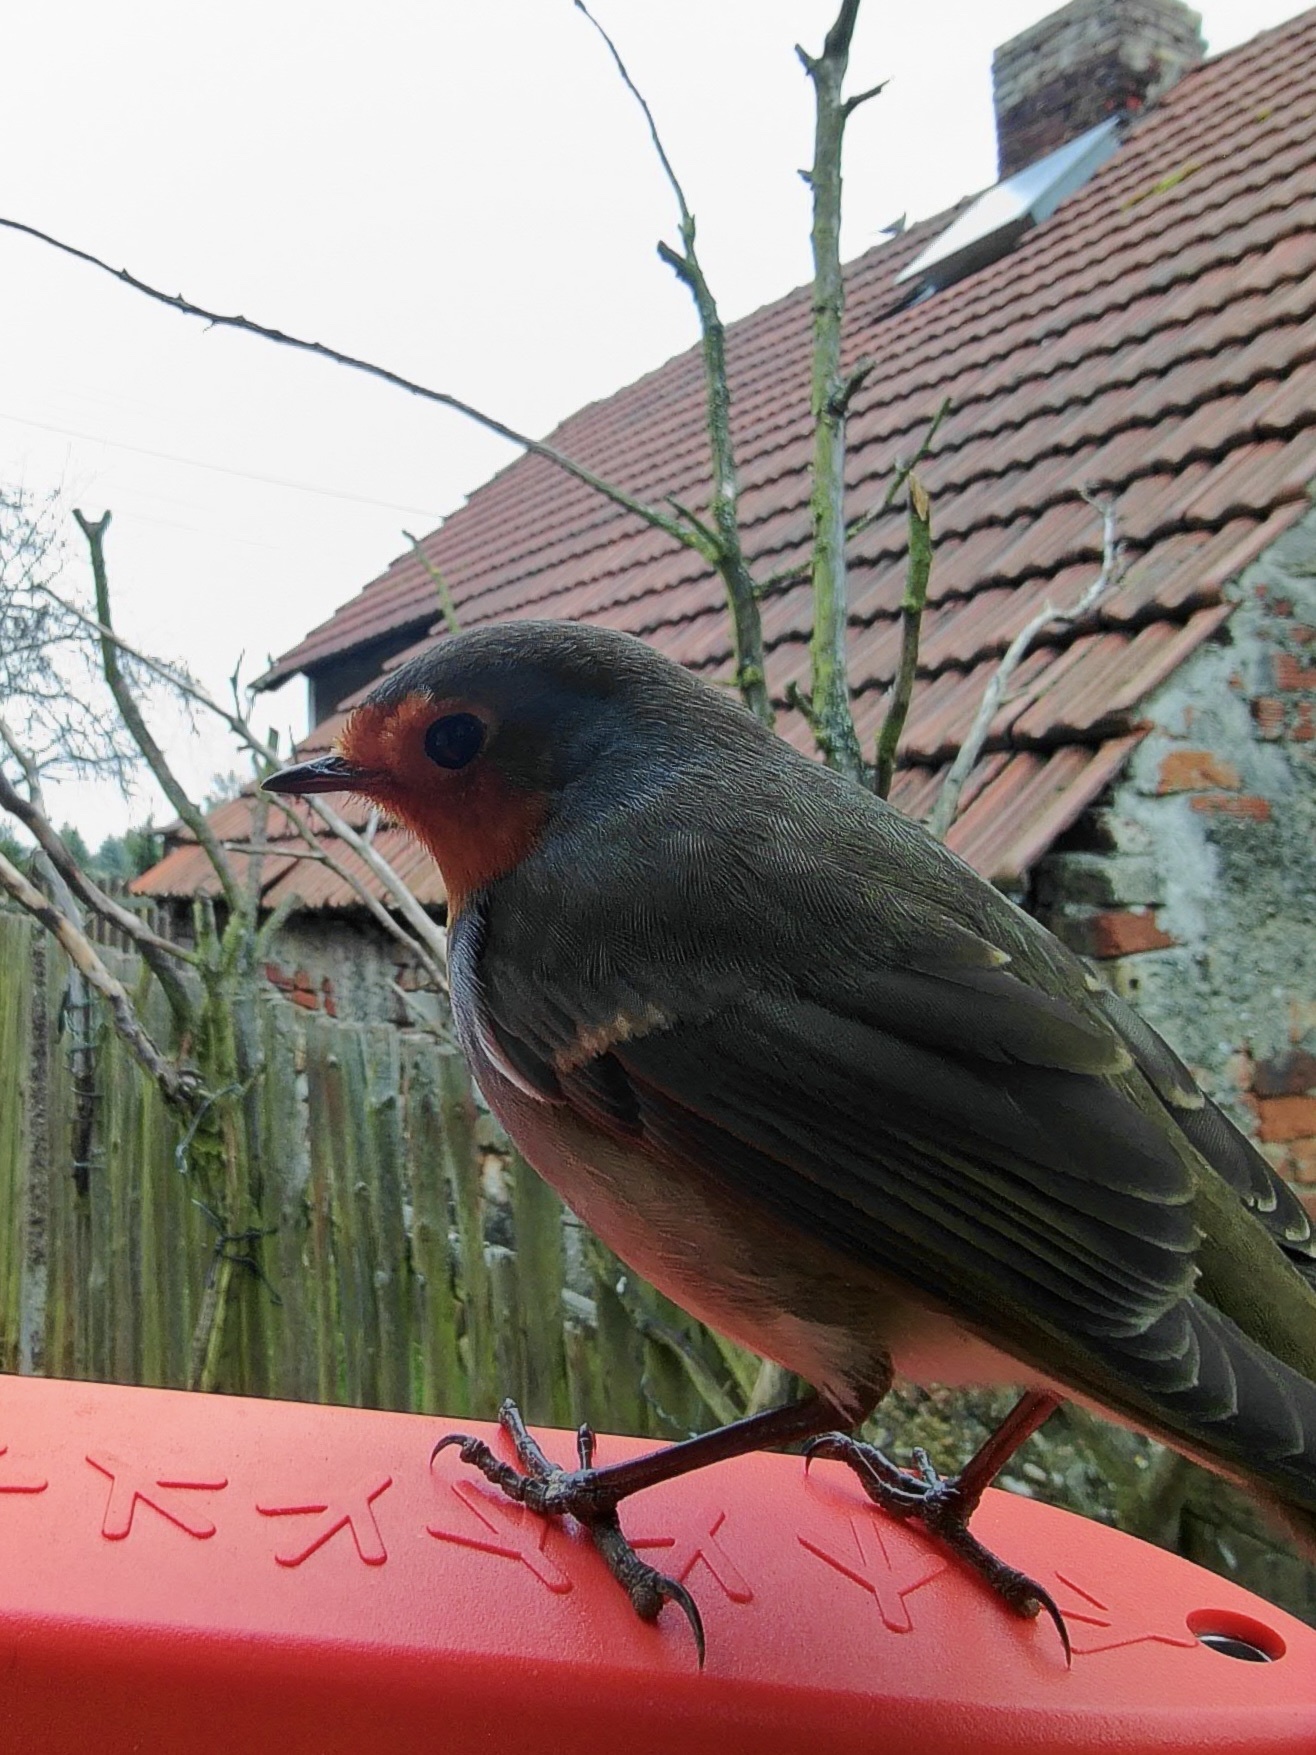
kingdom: Animalia
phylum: Chordata
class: Aves
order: Passeriformes
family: Muscicapidae
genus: Erithacus
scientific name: Erithacus rubecula
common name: European robin
